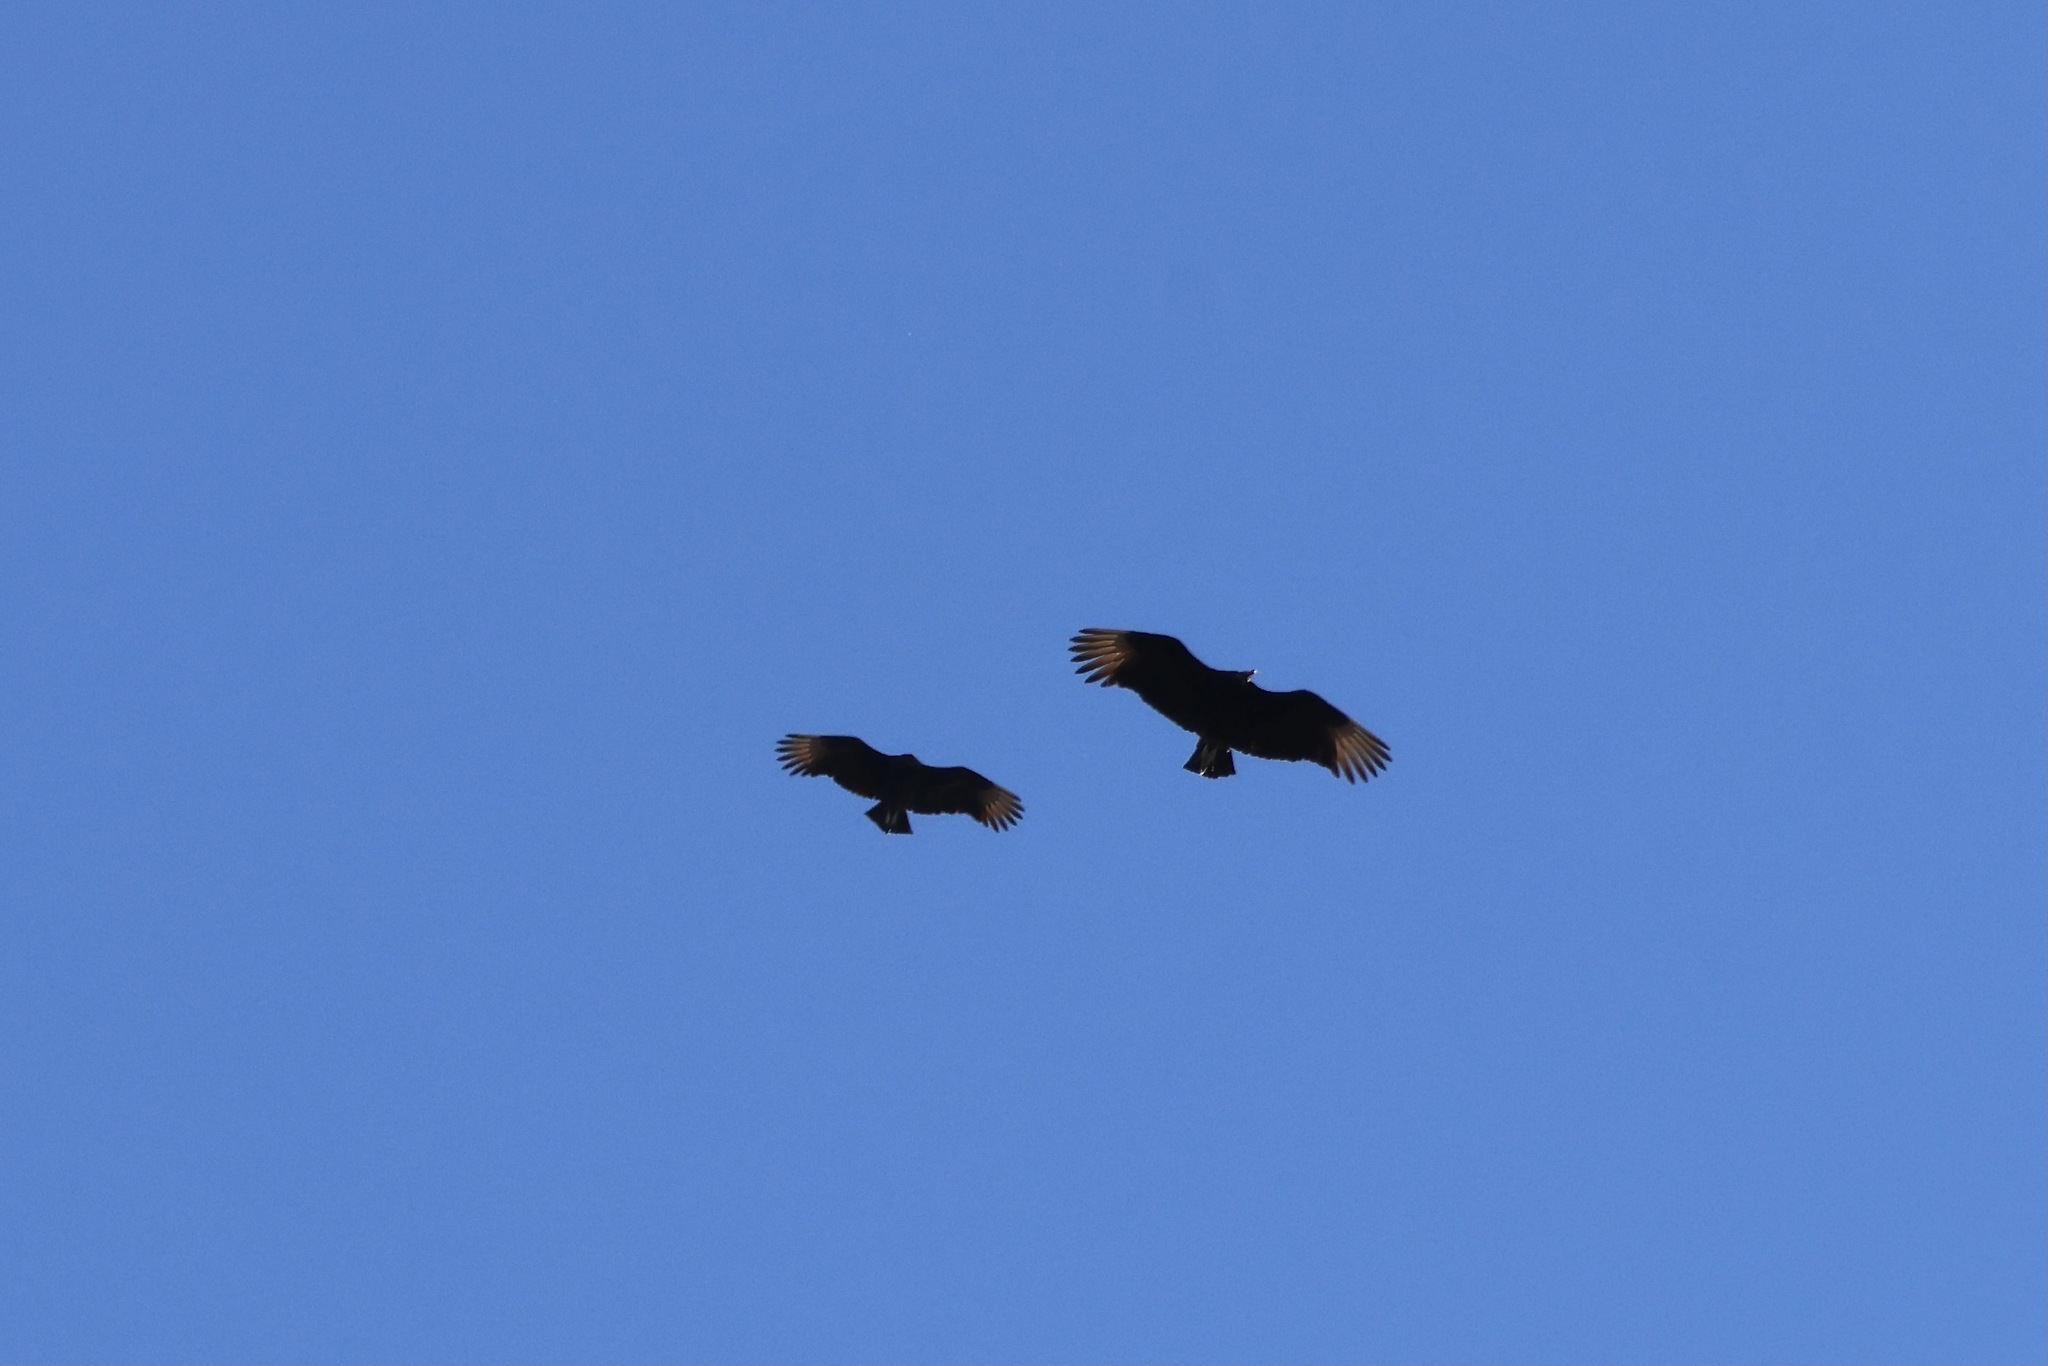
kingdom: Animalia
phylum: Chordata
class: Aves
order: Accipitriformes
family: Cathartidae
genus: Coragyps
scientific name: Coragyps atratus
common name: Black vulture
